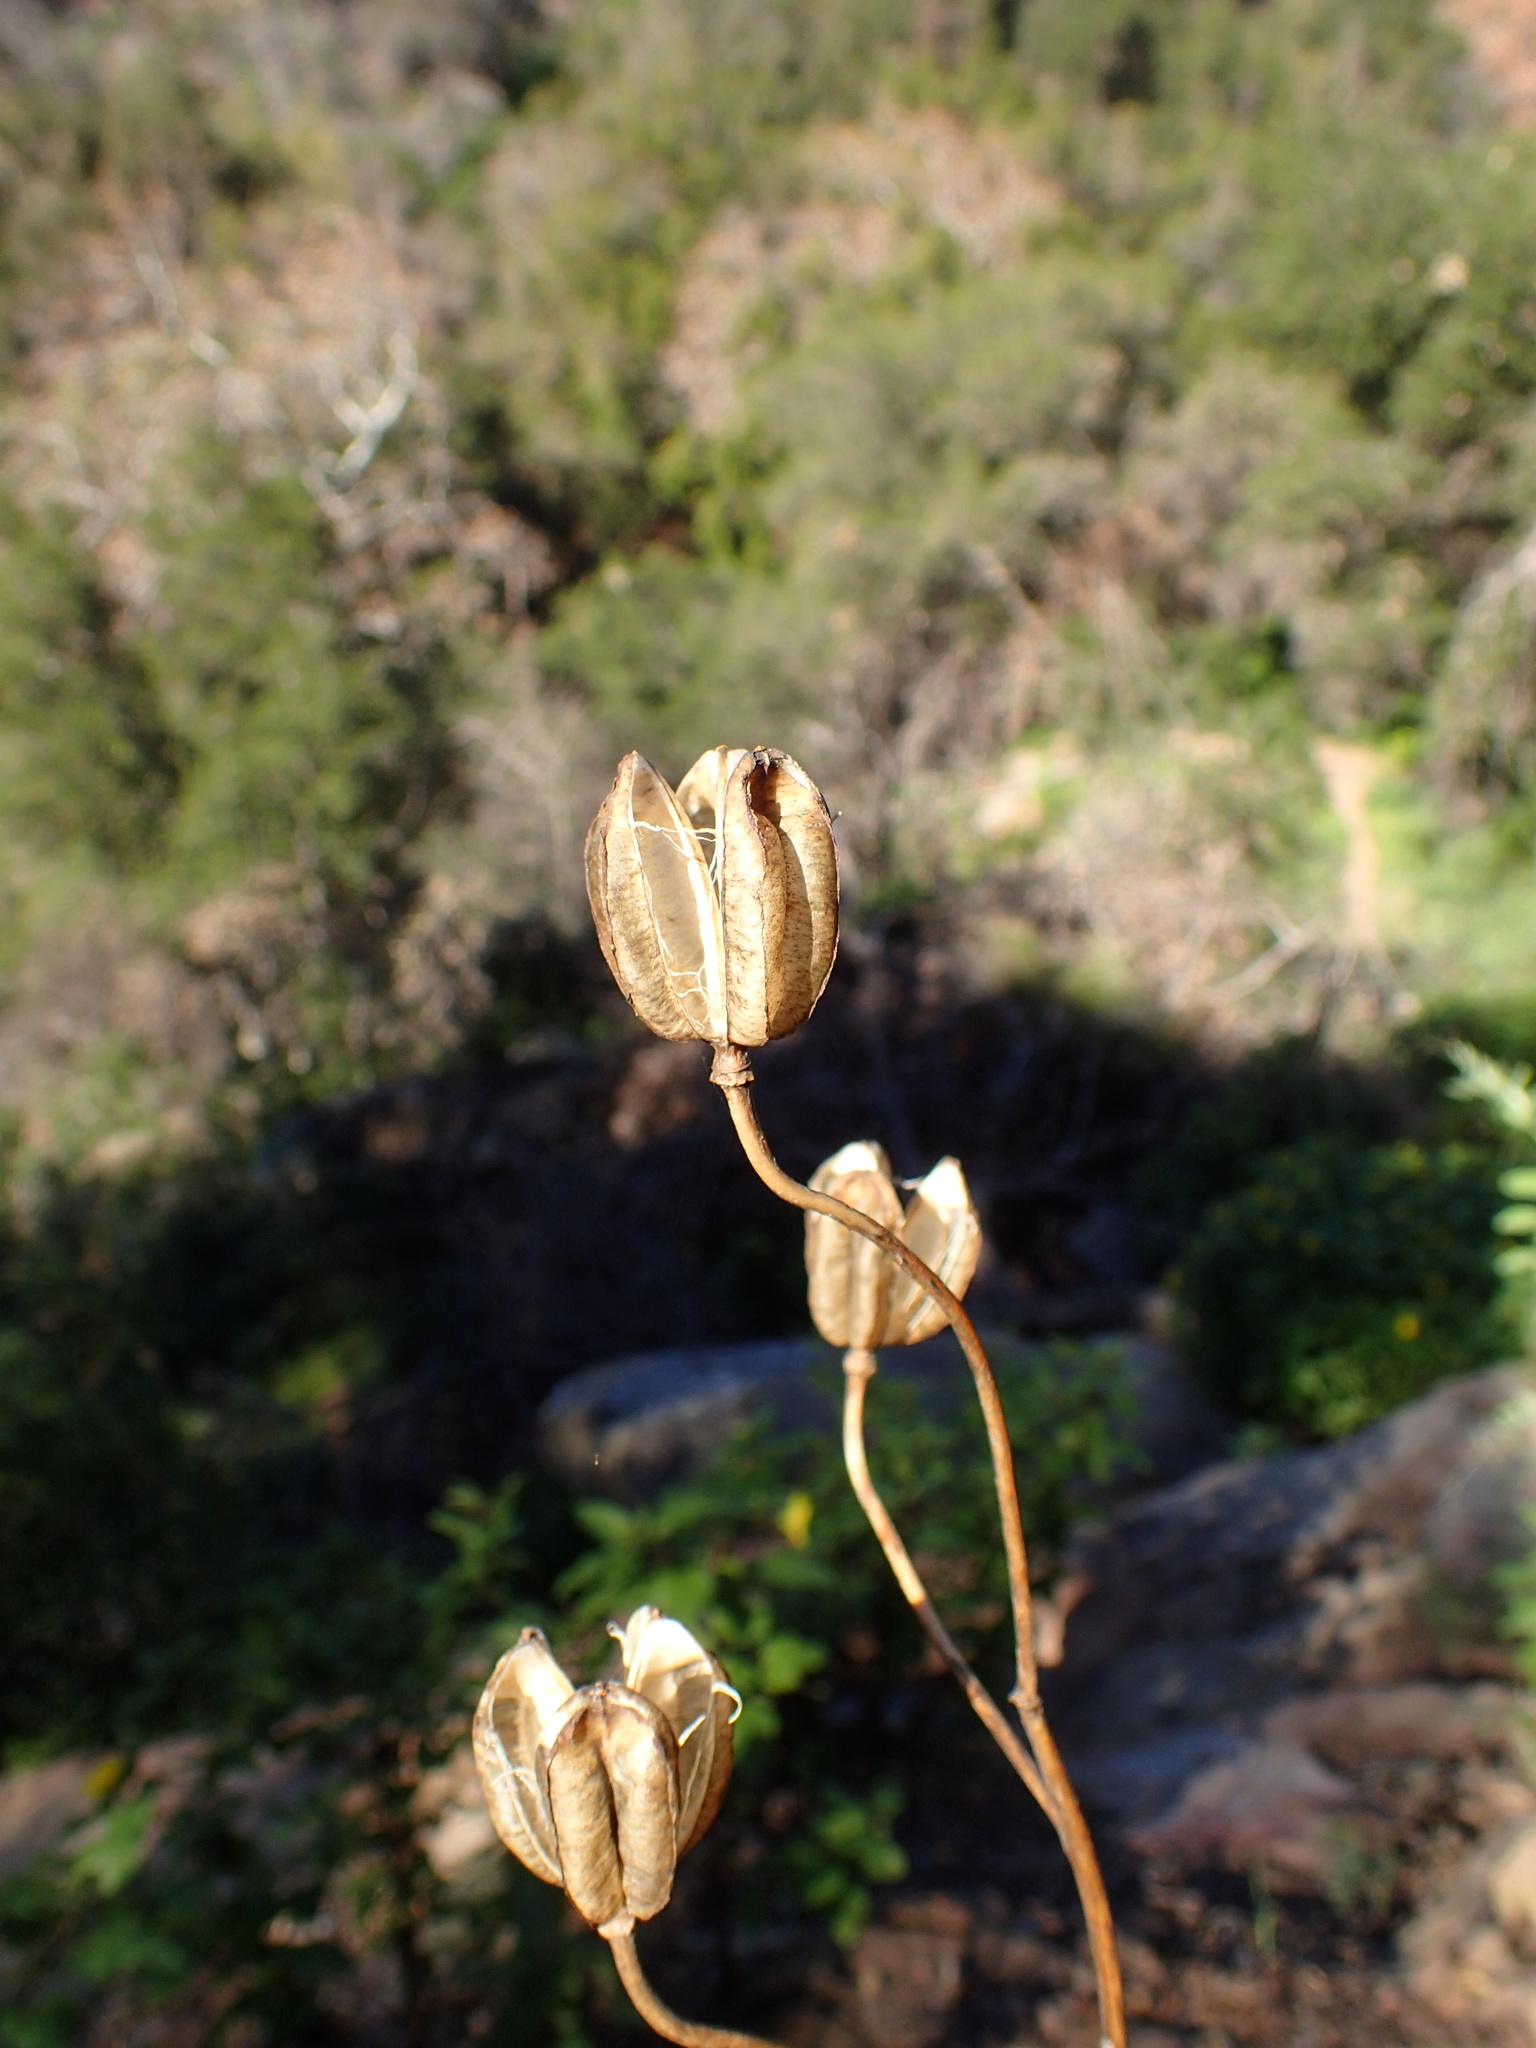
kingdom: Plantae
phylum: Tracheophyta
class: Liliopsida
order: Liliales
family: Liliaceae
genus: Lilium
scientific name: Lilium humboldtii
